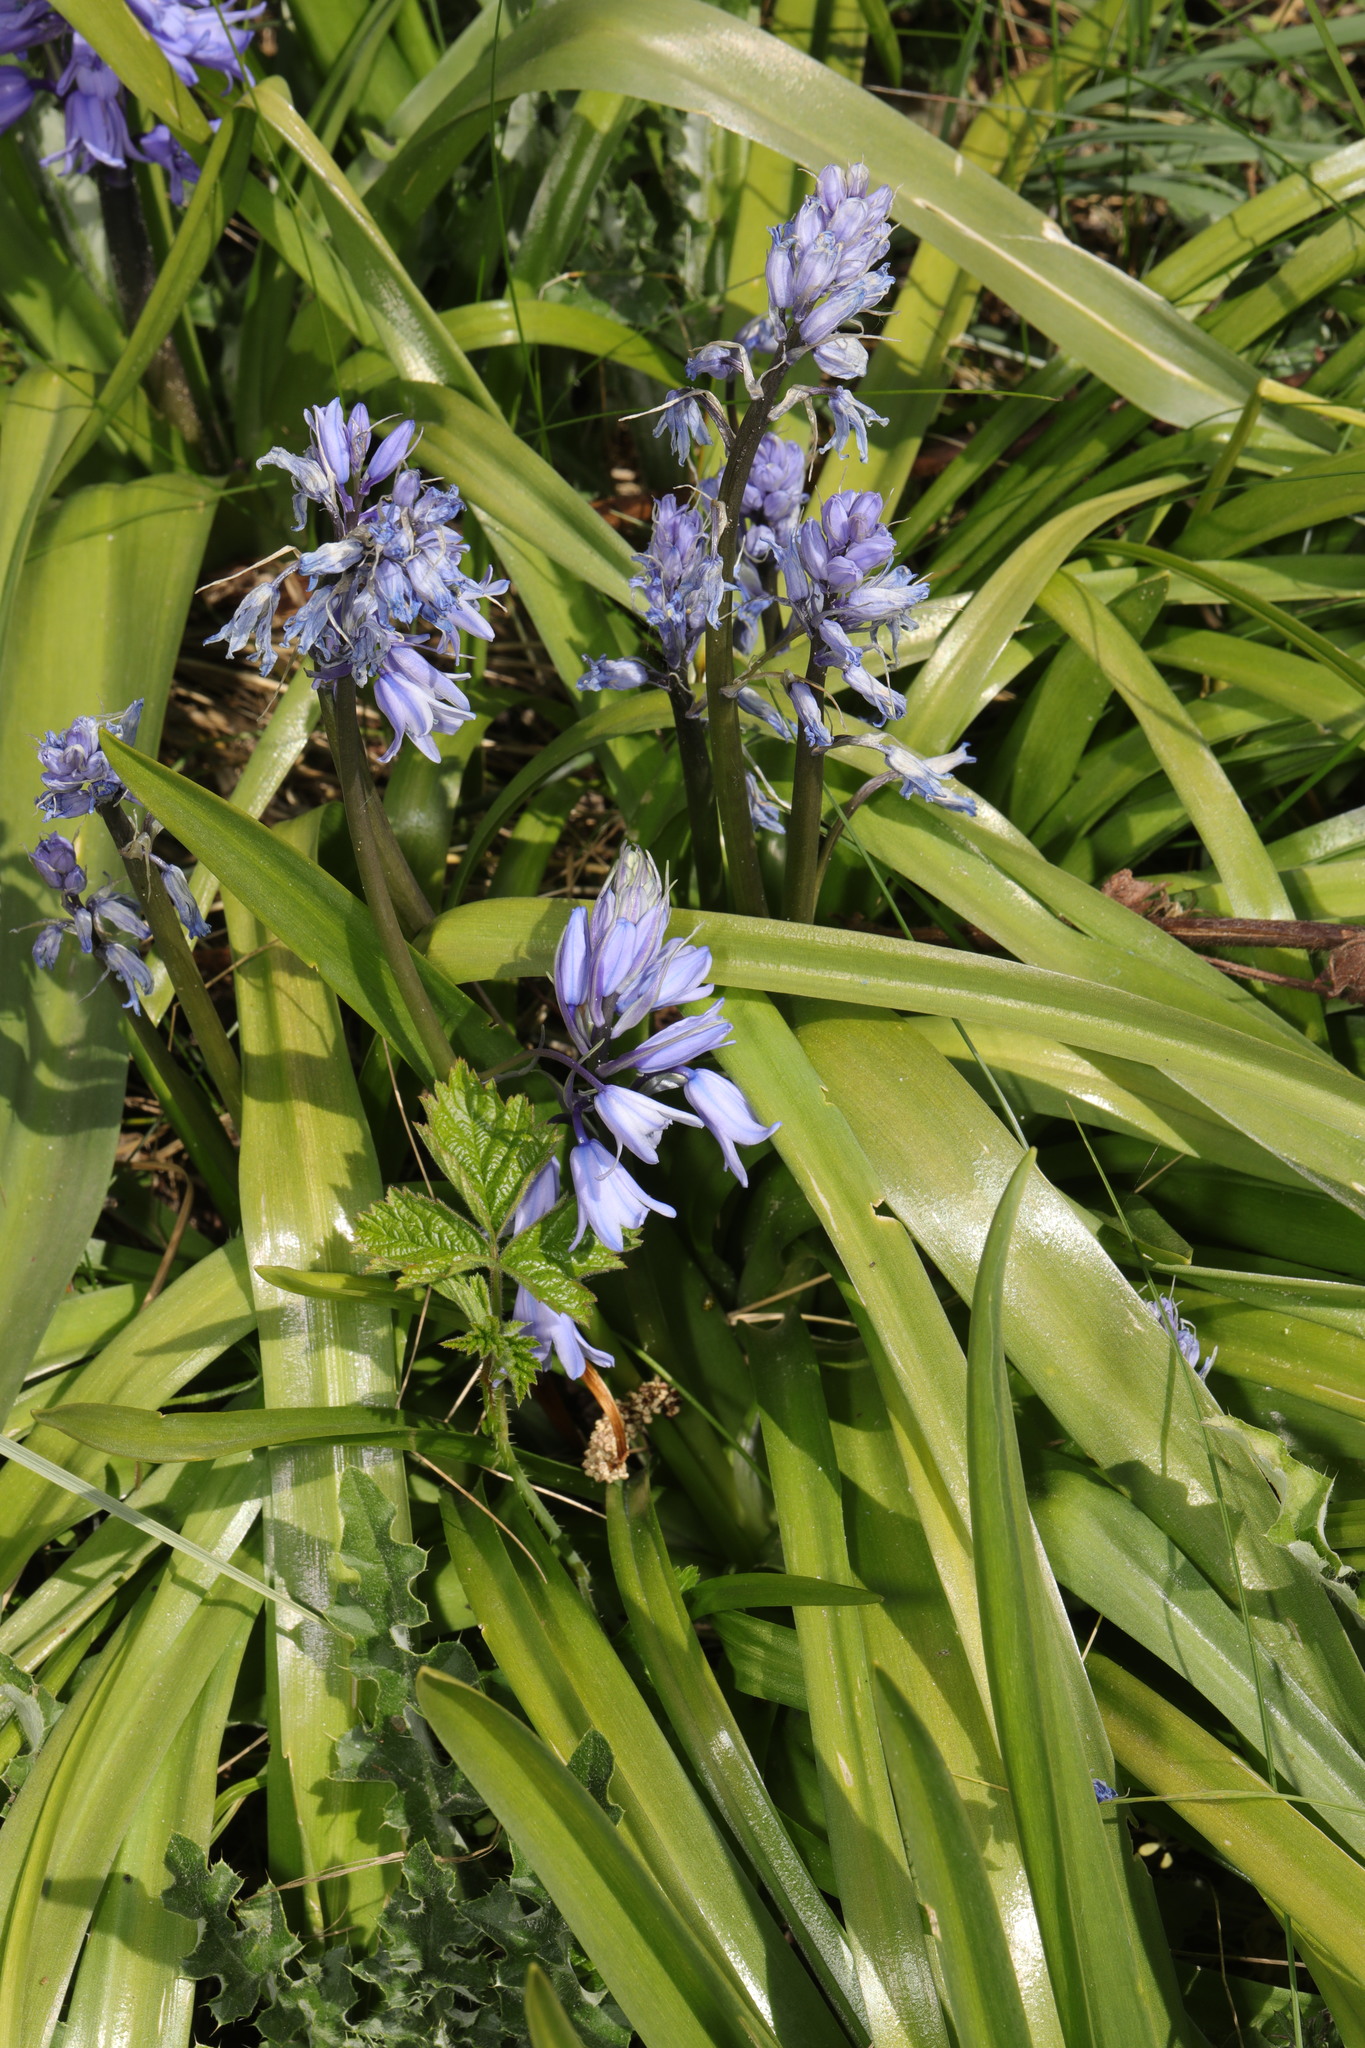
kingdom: Plantae
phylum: Tracheophyta
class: Liliopsida
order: Asparagales
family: Asparagaceae
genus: Hyacinthoides
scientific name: Hyacinthoides hispanica
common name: Spanish bluebell
